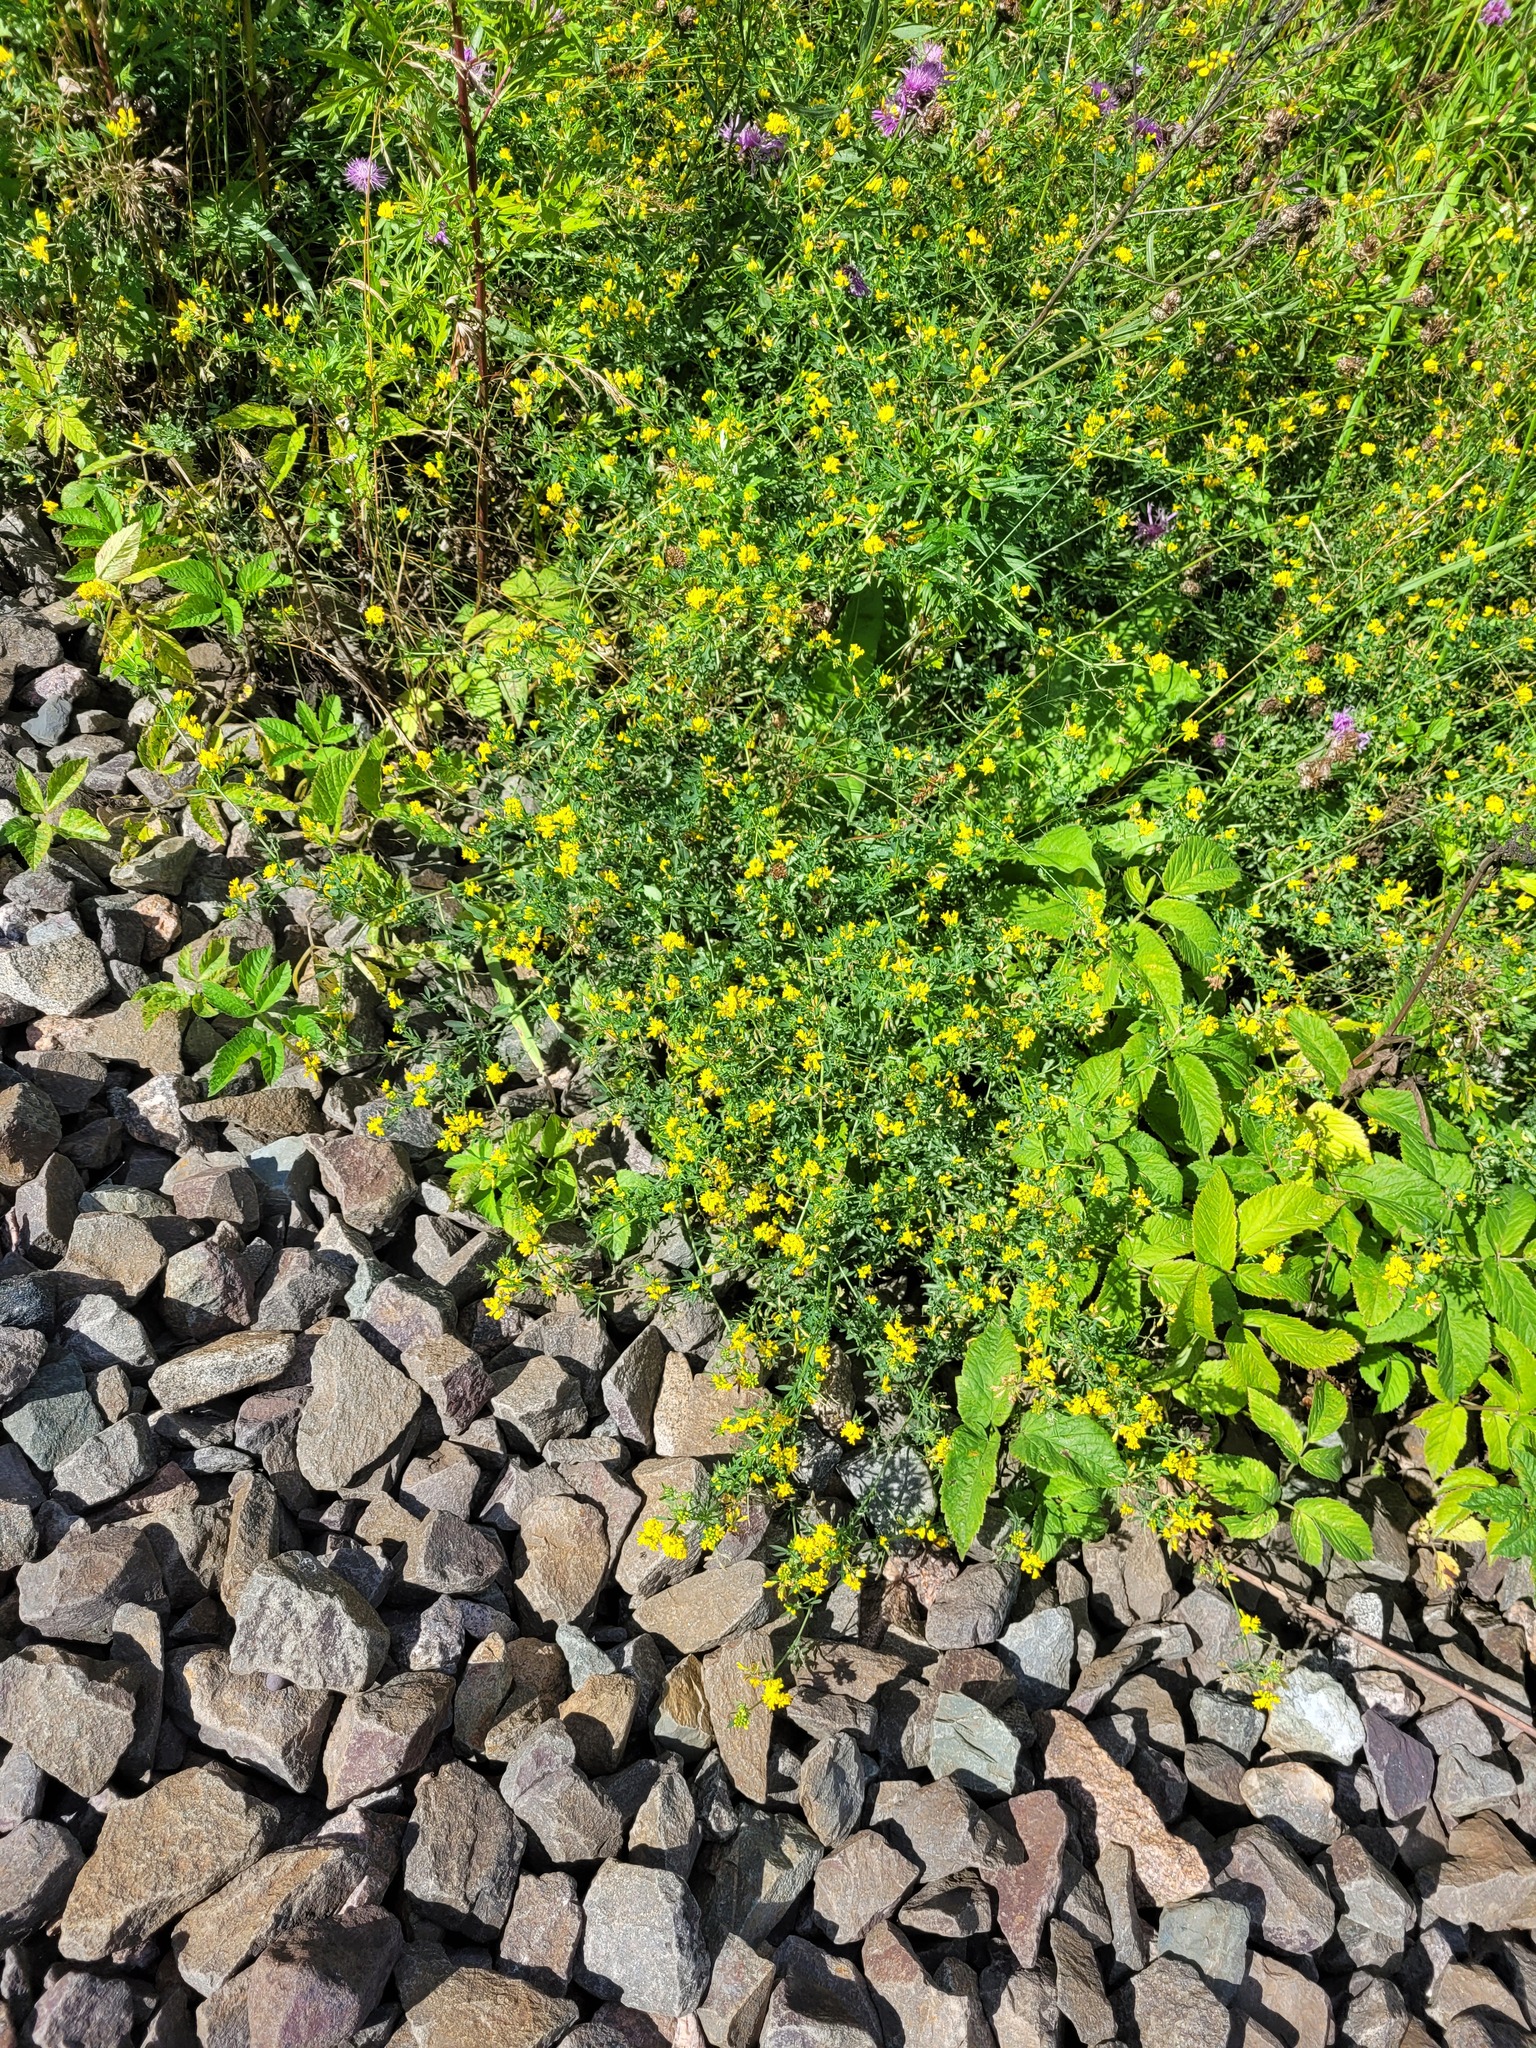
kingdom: Plantae
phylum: Tracheophyta
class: Magnoliopsida
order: Fabales
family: Fabaceae
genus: Medicago
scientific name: Medicago falcata
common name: Sickle medick
